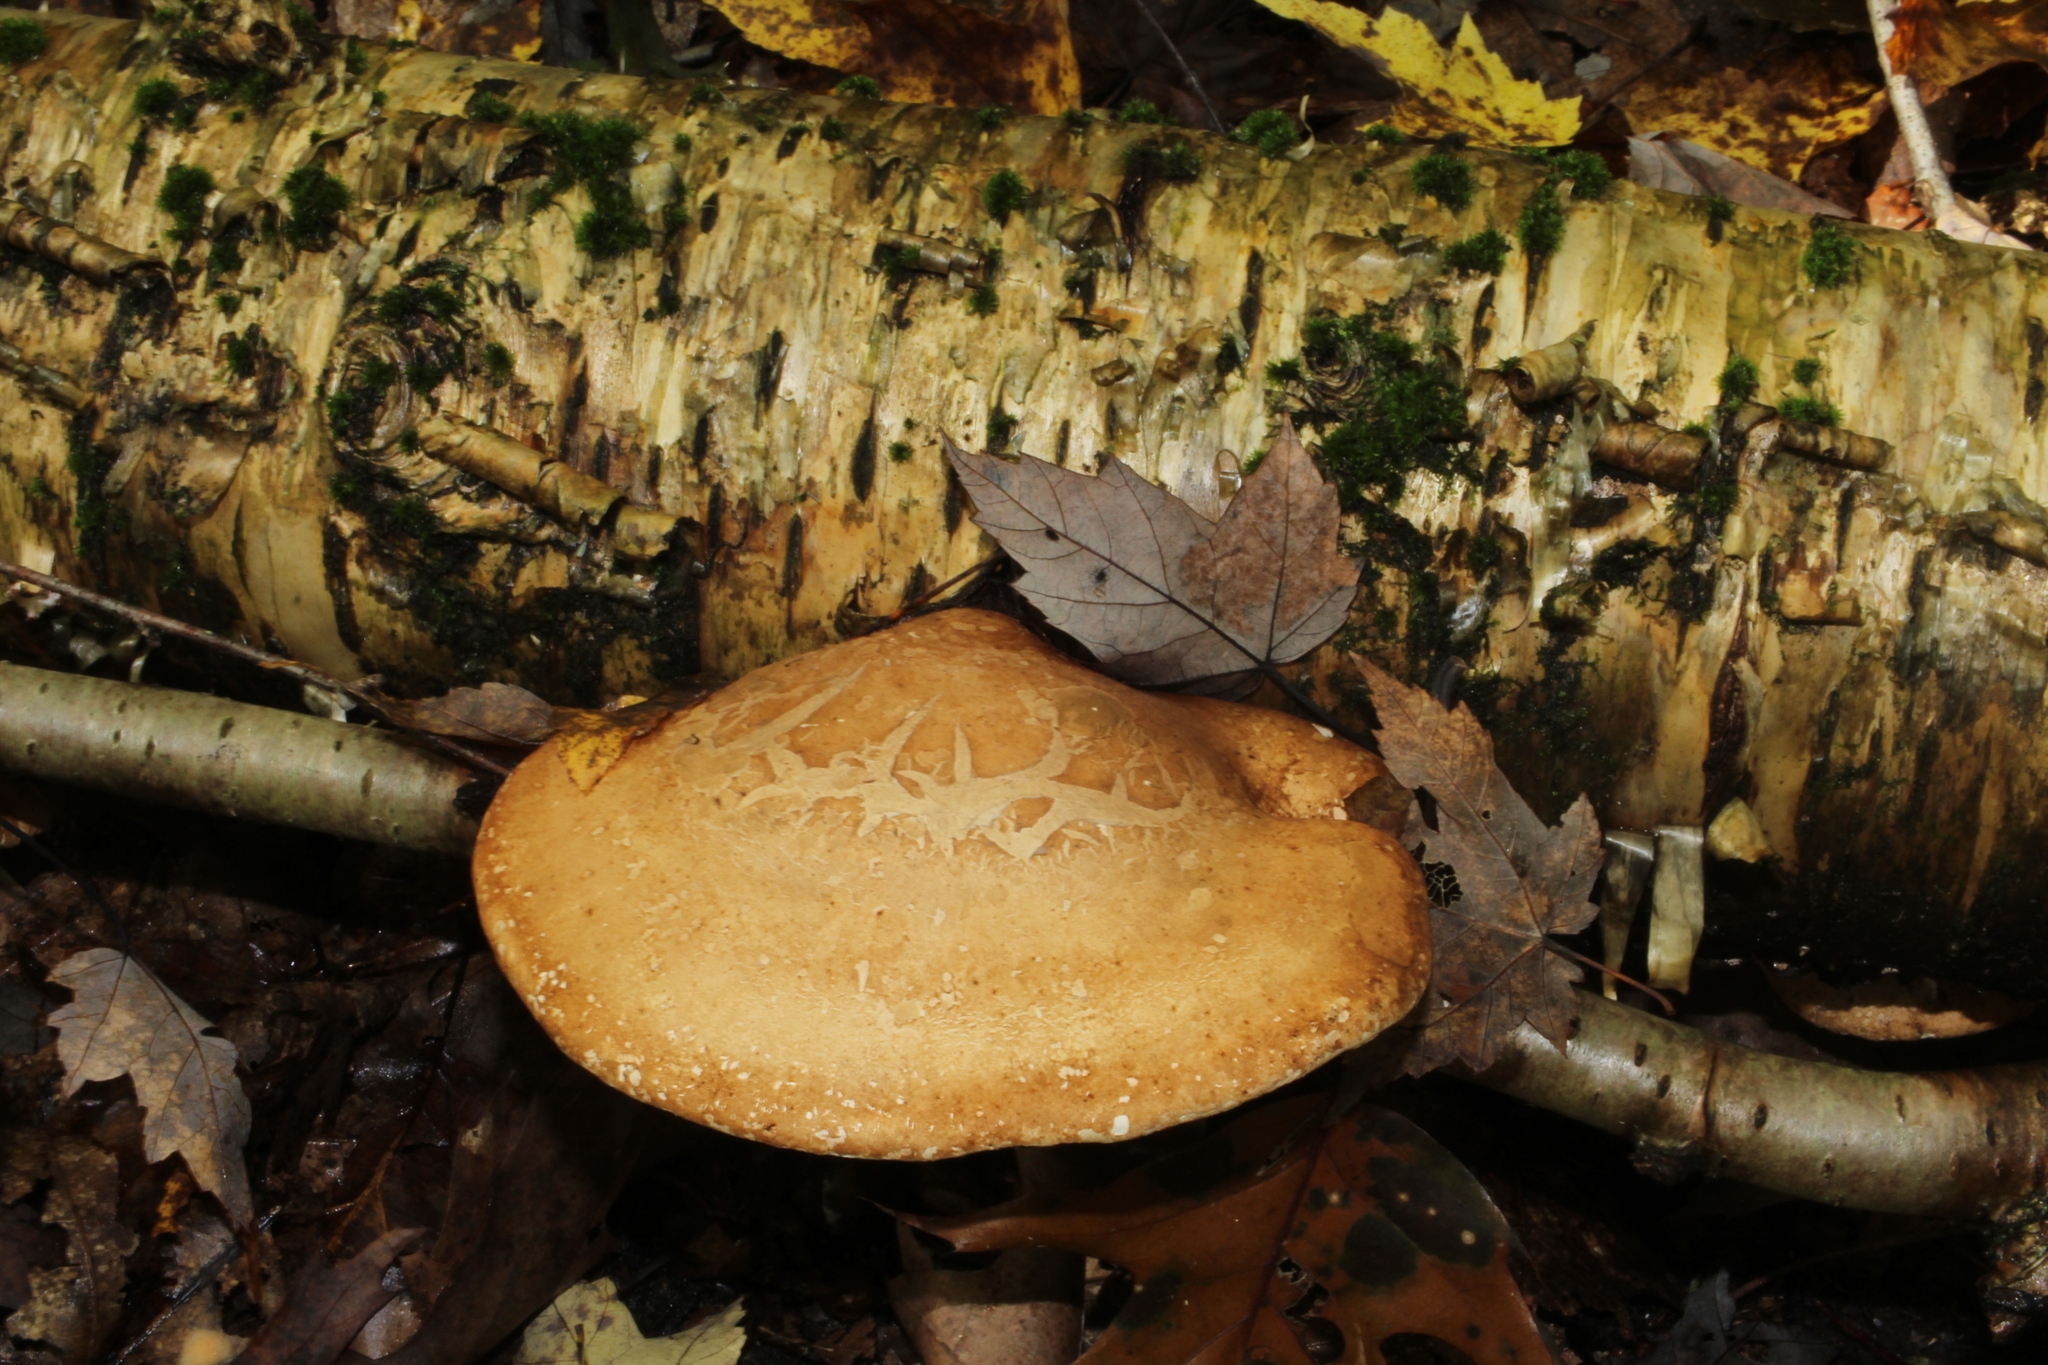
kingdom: Fungi
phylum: Basidiomycota
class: Agaricomycetes
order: Polyporales
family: Fomitopsidaceae
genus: Fomitopsis
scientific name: Fomitopsis betulina
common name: Birch polypore
